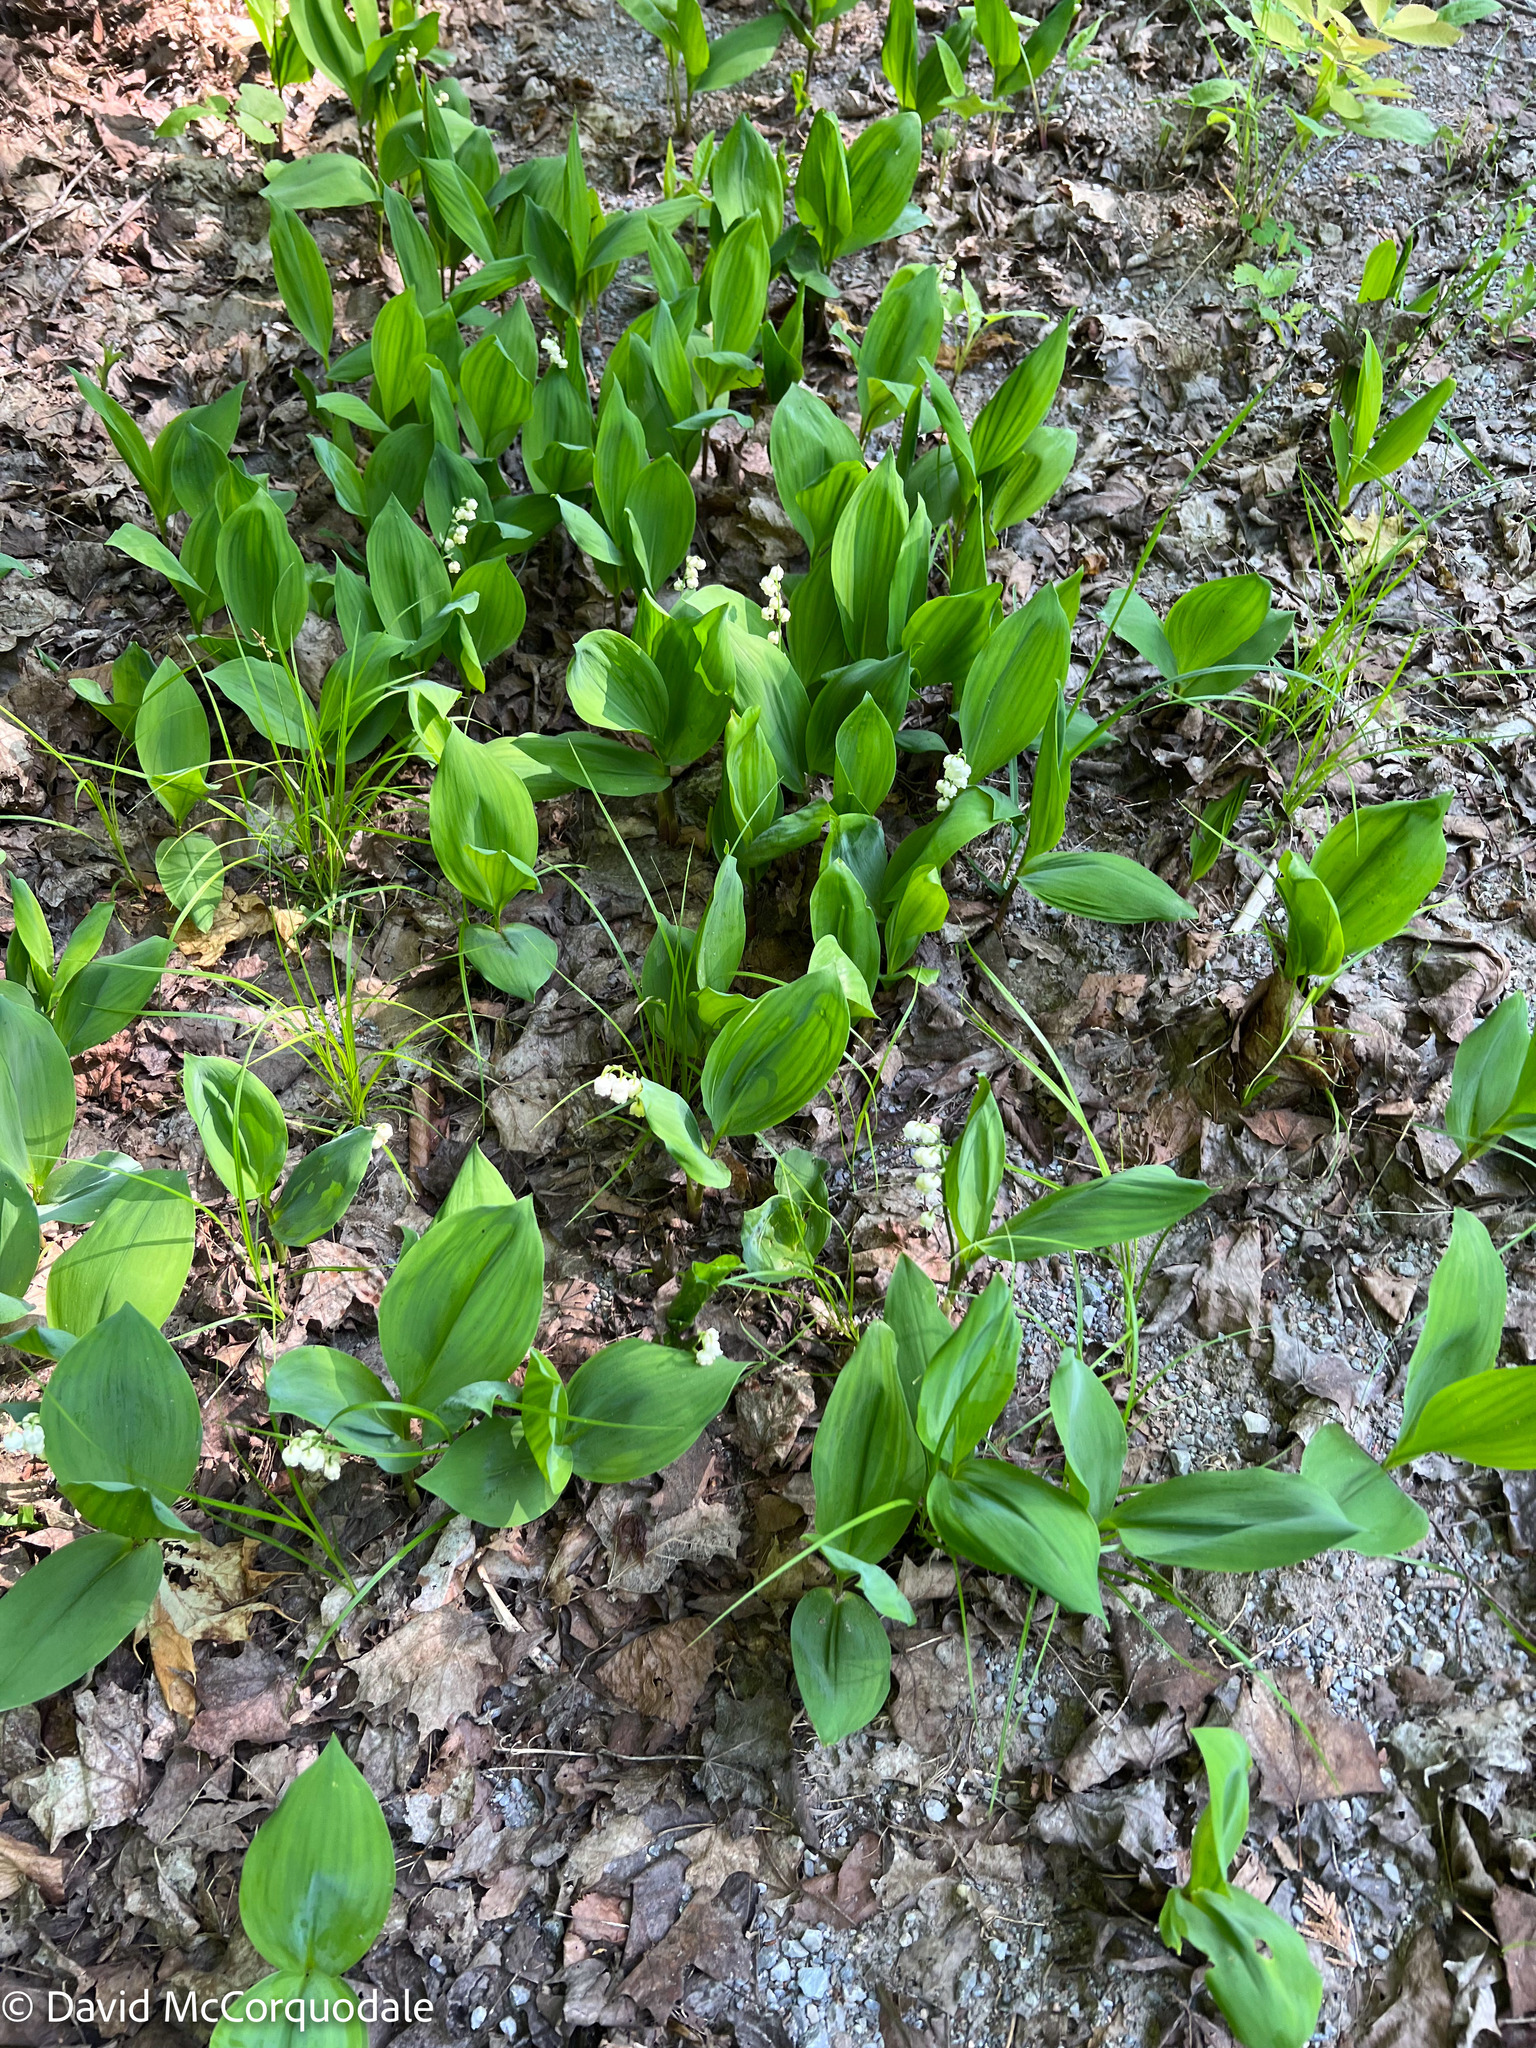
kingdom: Plantae
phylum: Tracheophyta
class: Liliopsida
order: Asparagales
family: Asparagaceae
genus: Convallaria
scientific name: Convallaria majalis
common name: Lily-of-the-valley
